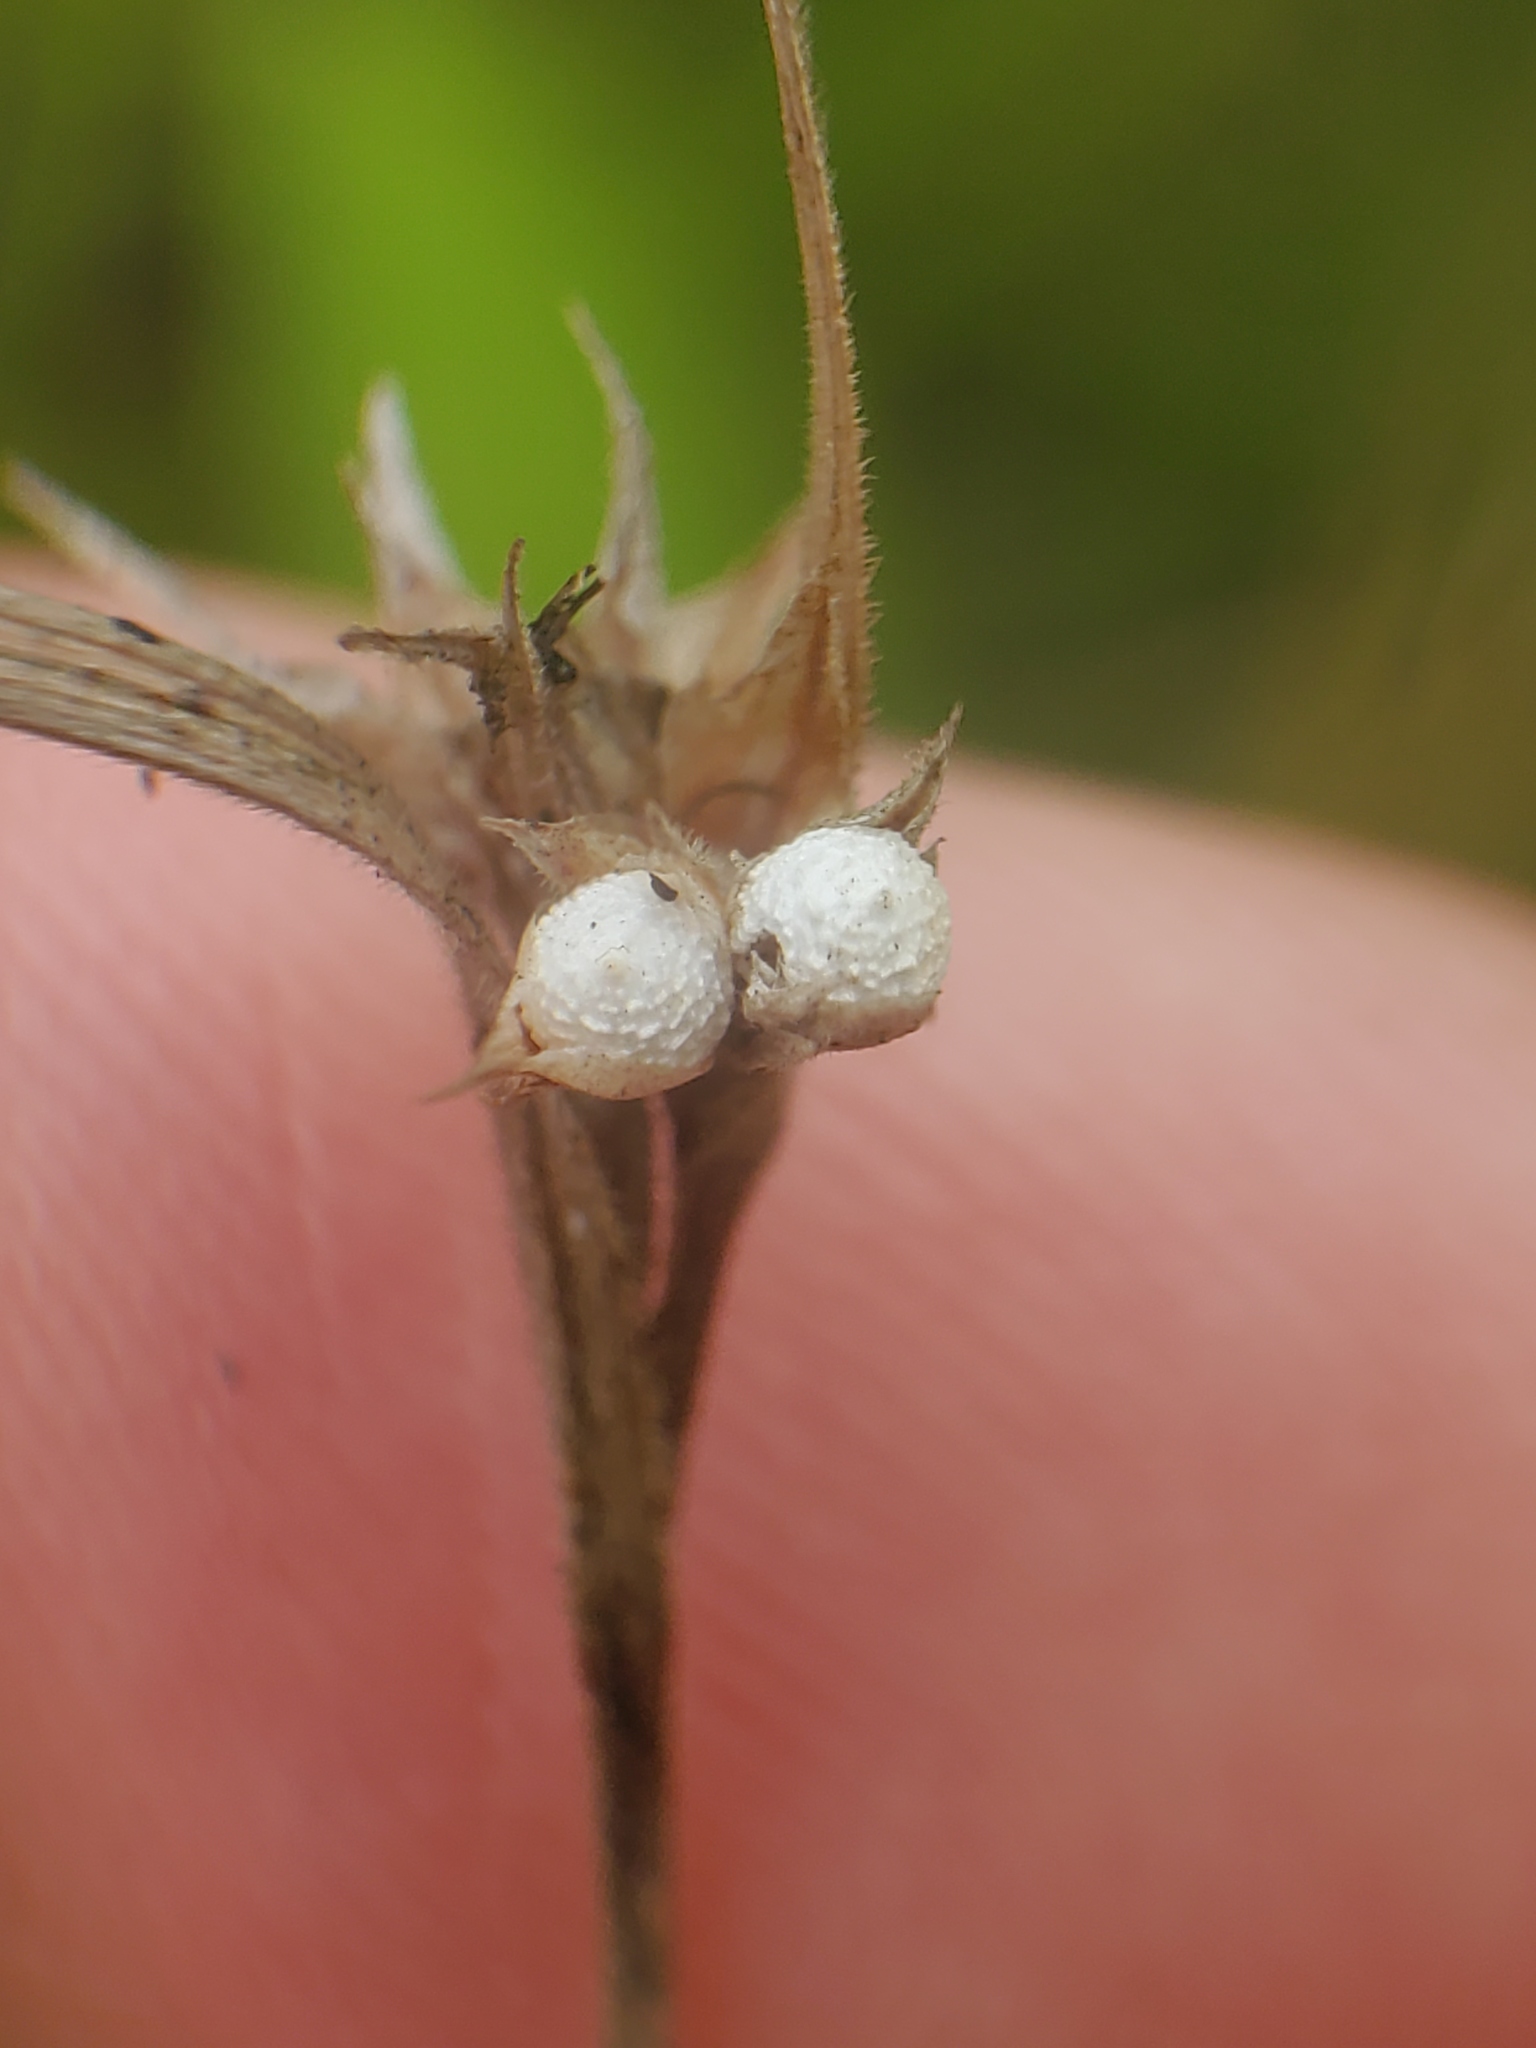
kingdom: Plantae
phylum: Tracheophyta
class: Liliopsida
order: Poales
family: Cyperaceae
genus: Scleria
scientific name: Scleria pauciflora
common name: Few-flowered nutrush
